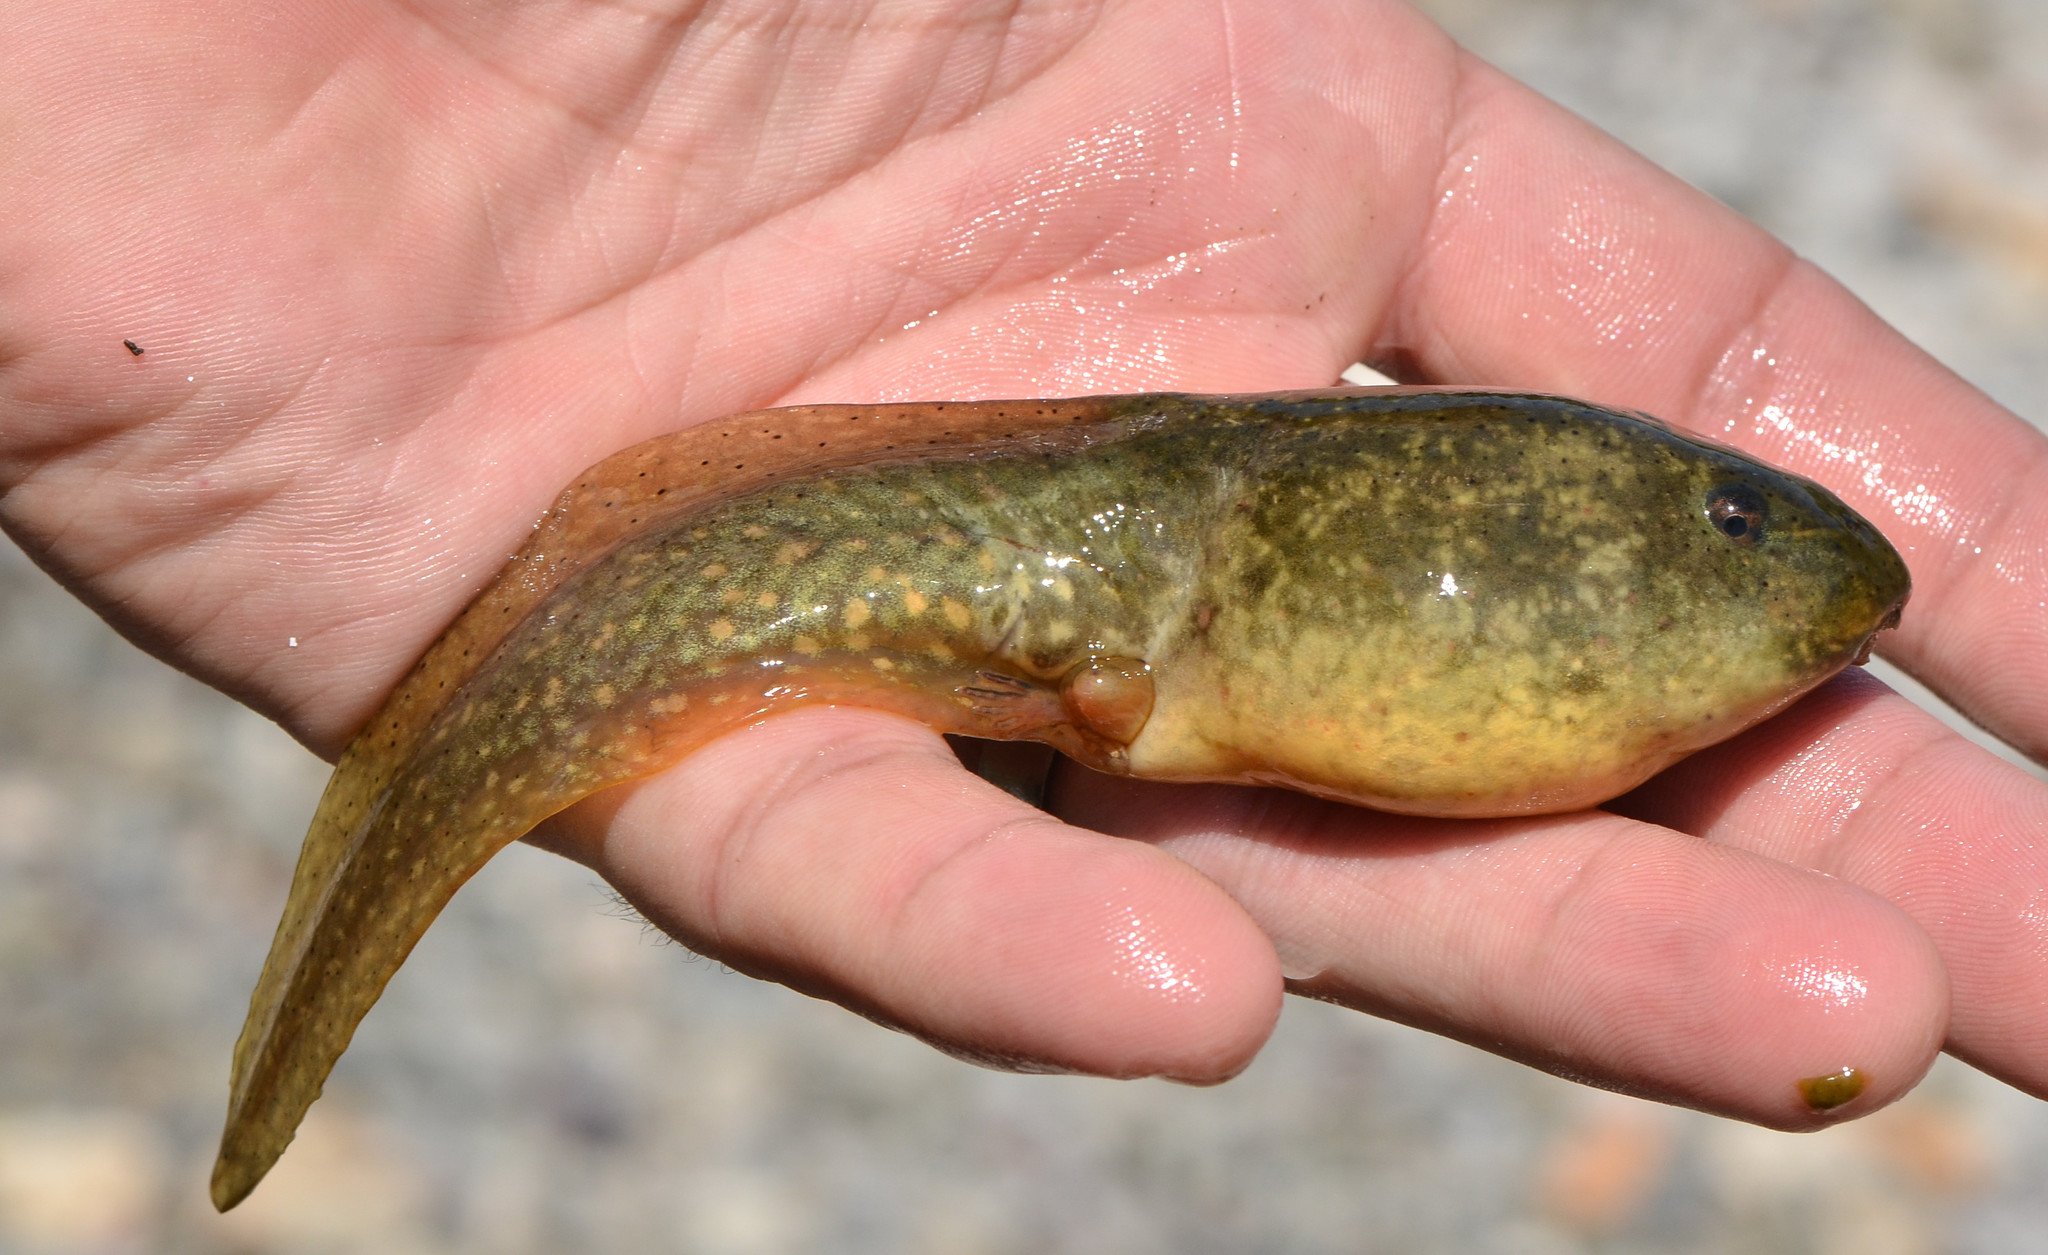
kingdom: Animalia
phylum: Chordata
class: Amphibia
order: Anura
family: Ranidae
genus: Lithobates
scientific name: Lithobates catesbeianus
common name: American bullfrog
